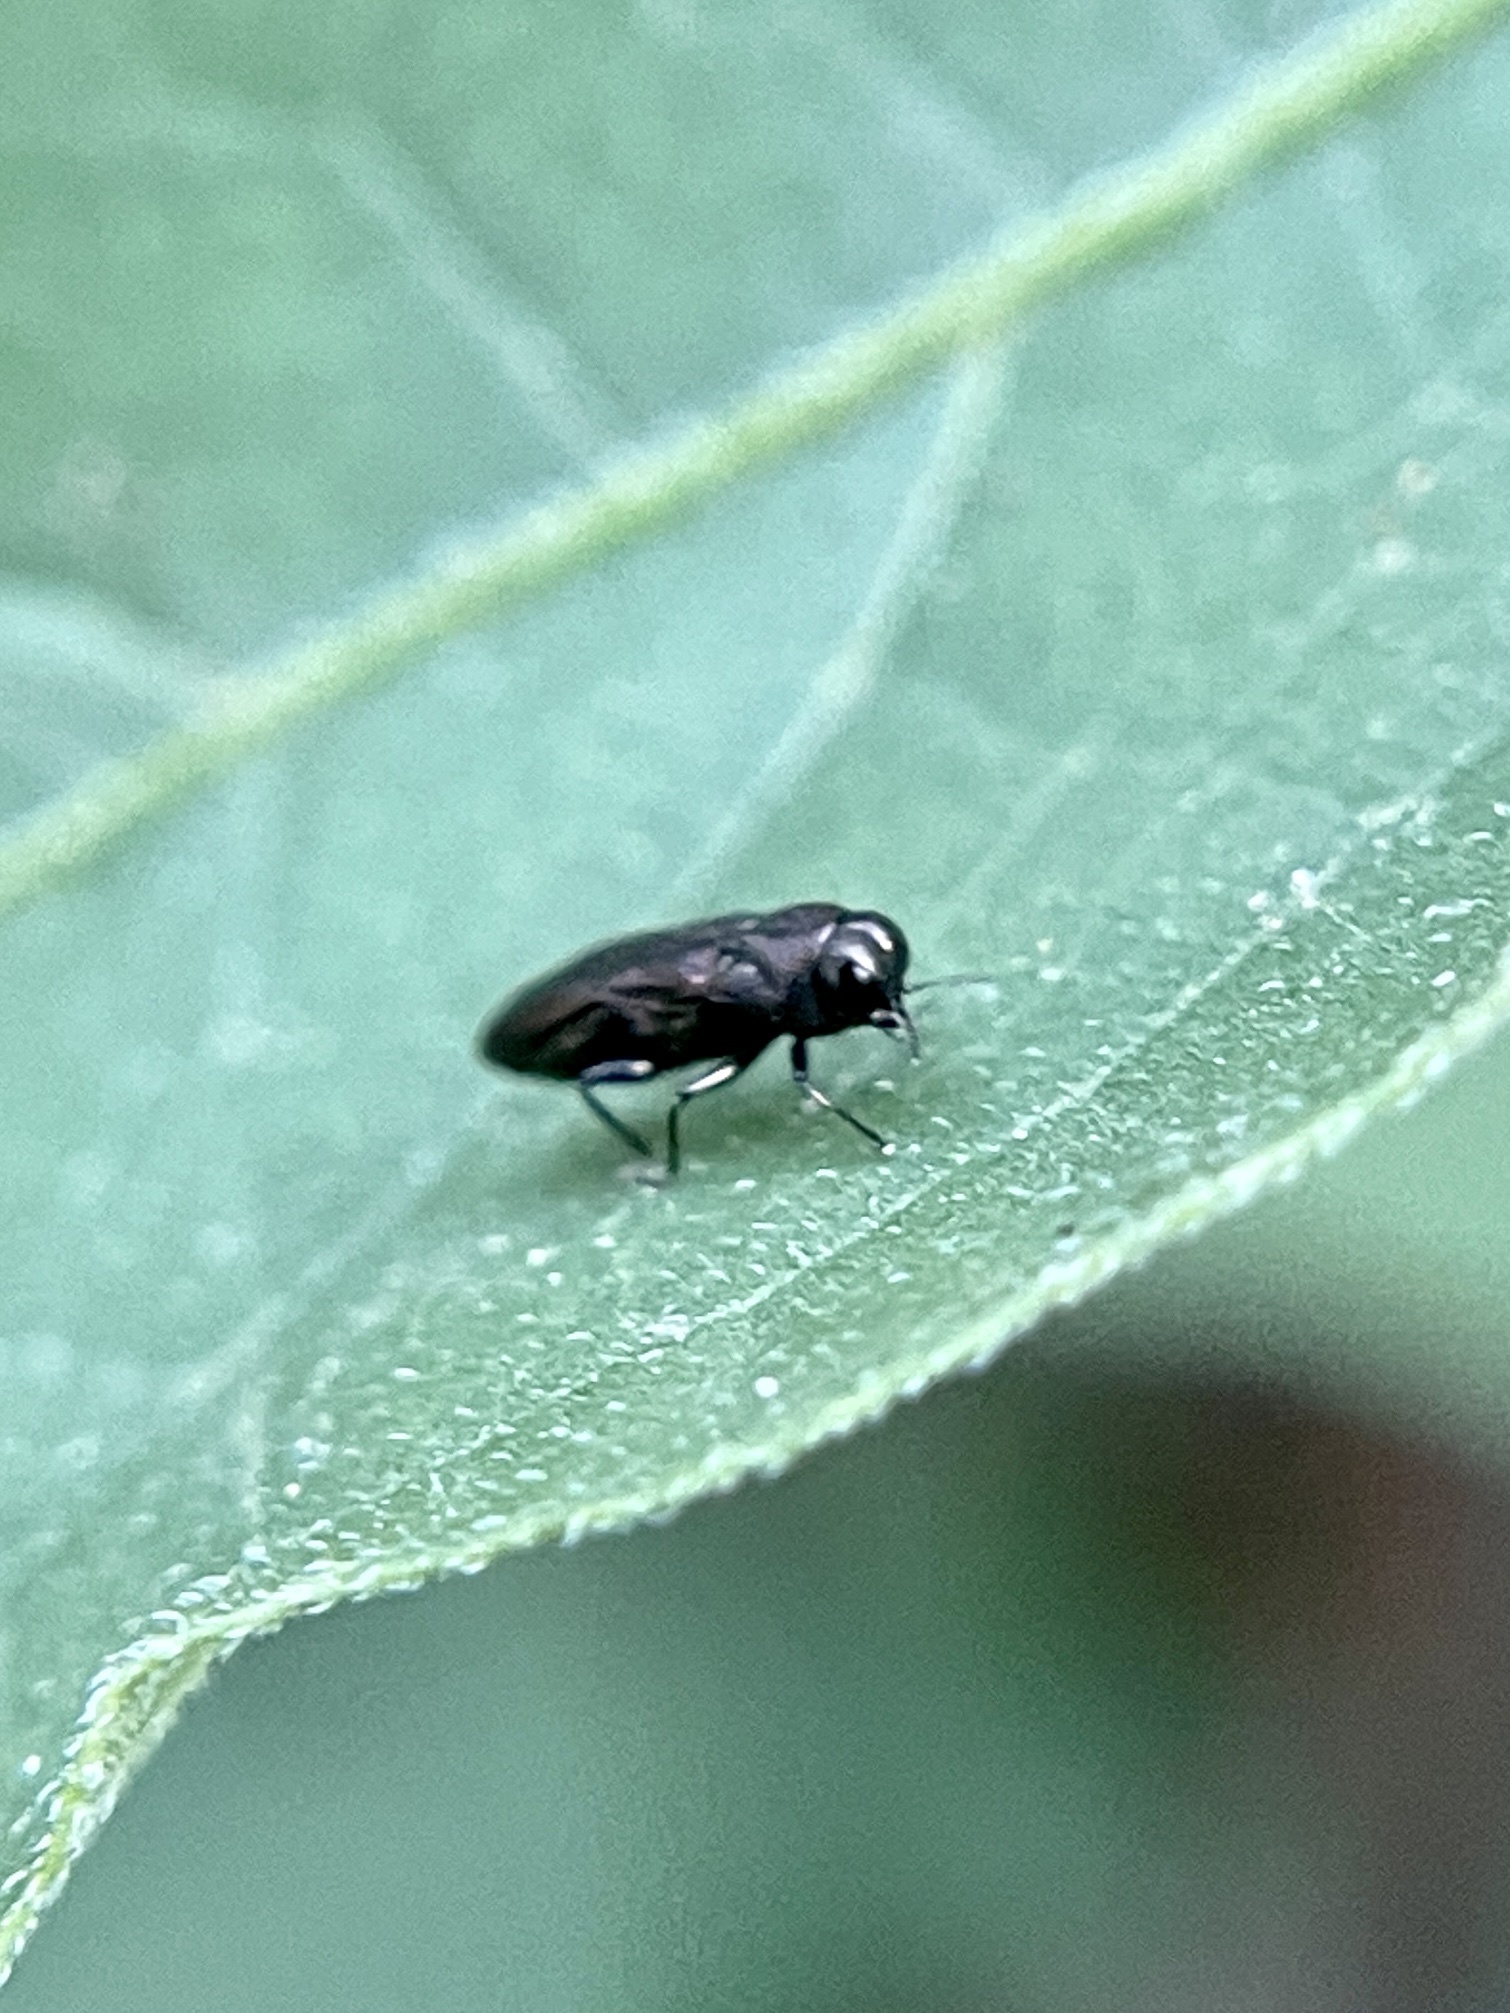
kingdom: Animalia
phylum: Arthropoda
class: Insecta
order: Coleoptera
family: Buprestidae
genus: Paragrilus
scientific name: Paragrilus rugatulus
